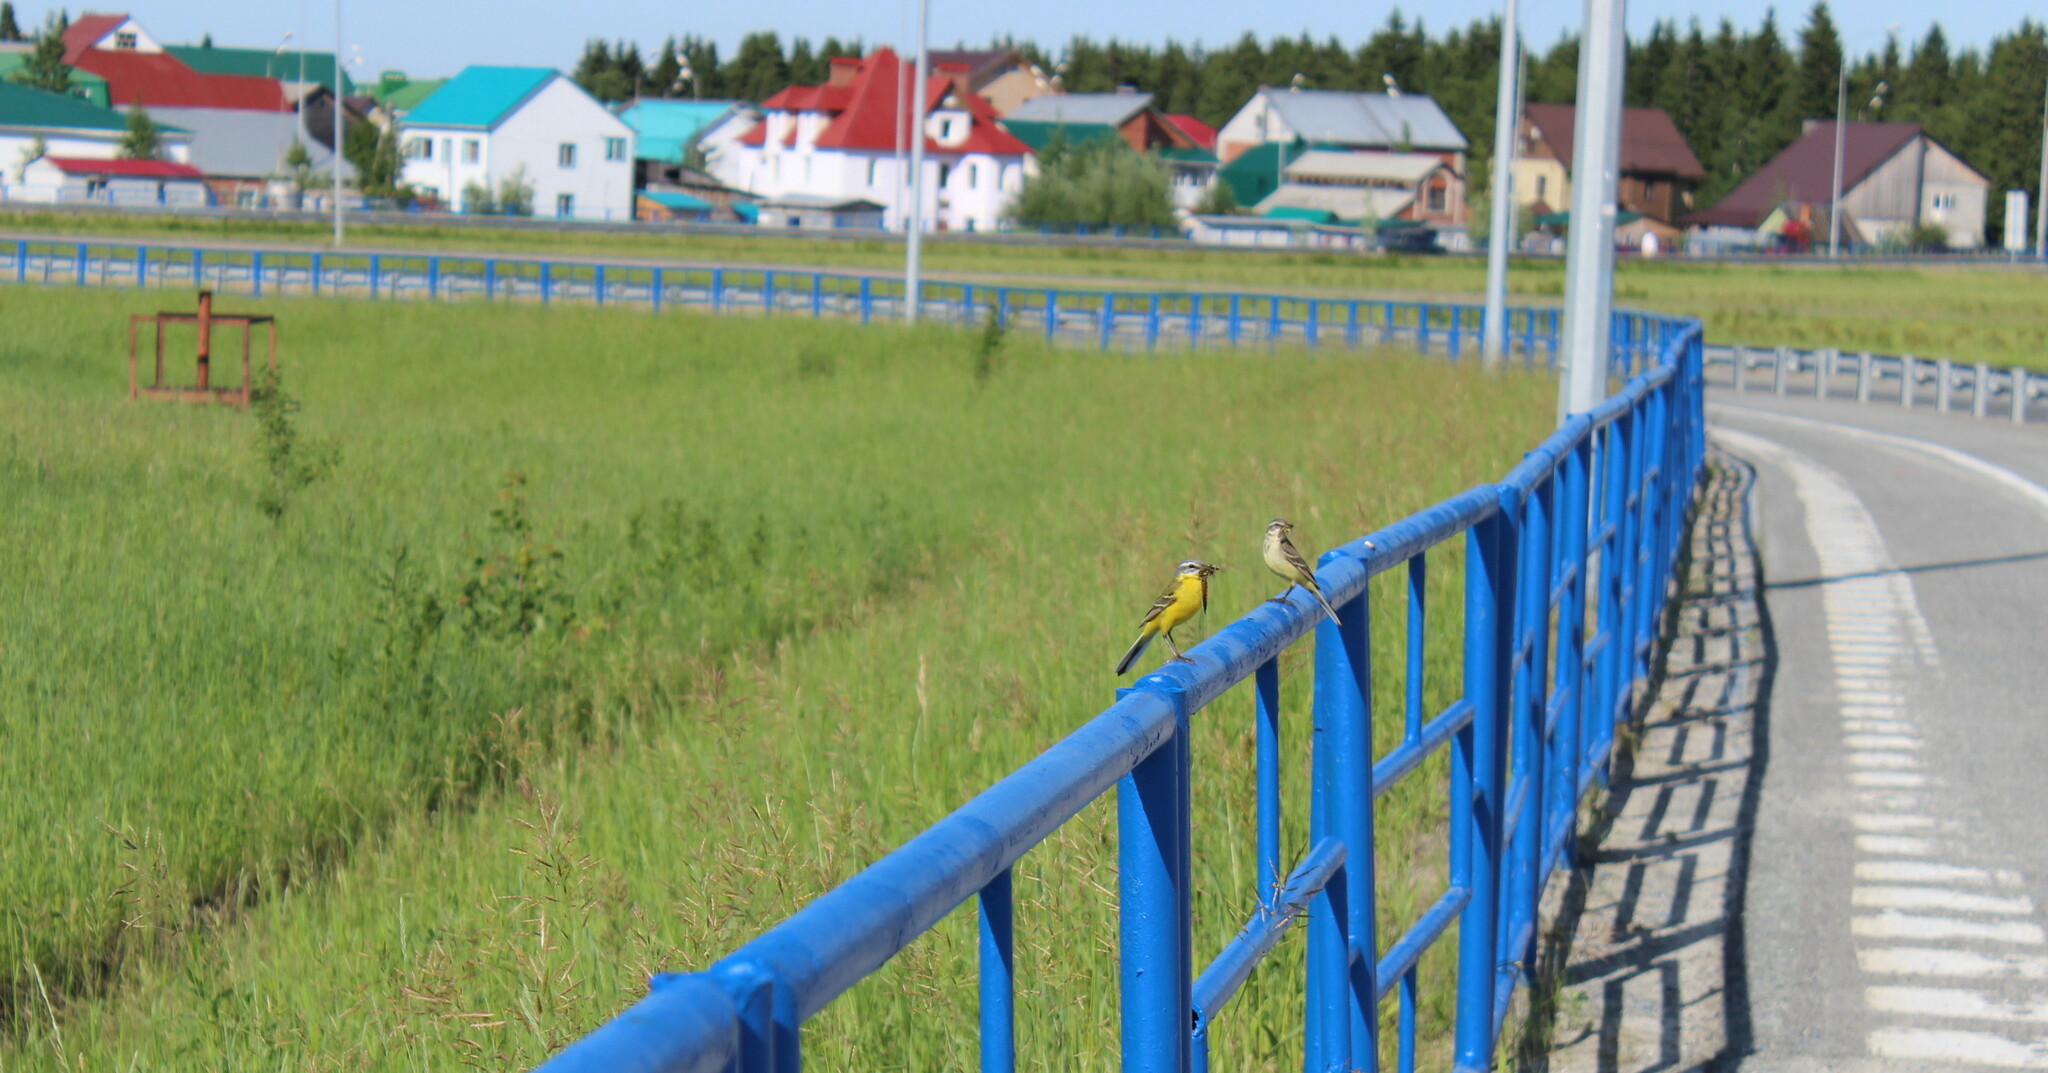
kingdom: Animalia
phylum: Chordata
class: Aves
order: Passeriformes
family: Motacillidae
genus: Motacilla
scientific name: Motacilla flava
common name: Western yellow wagtail
